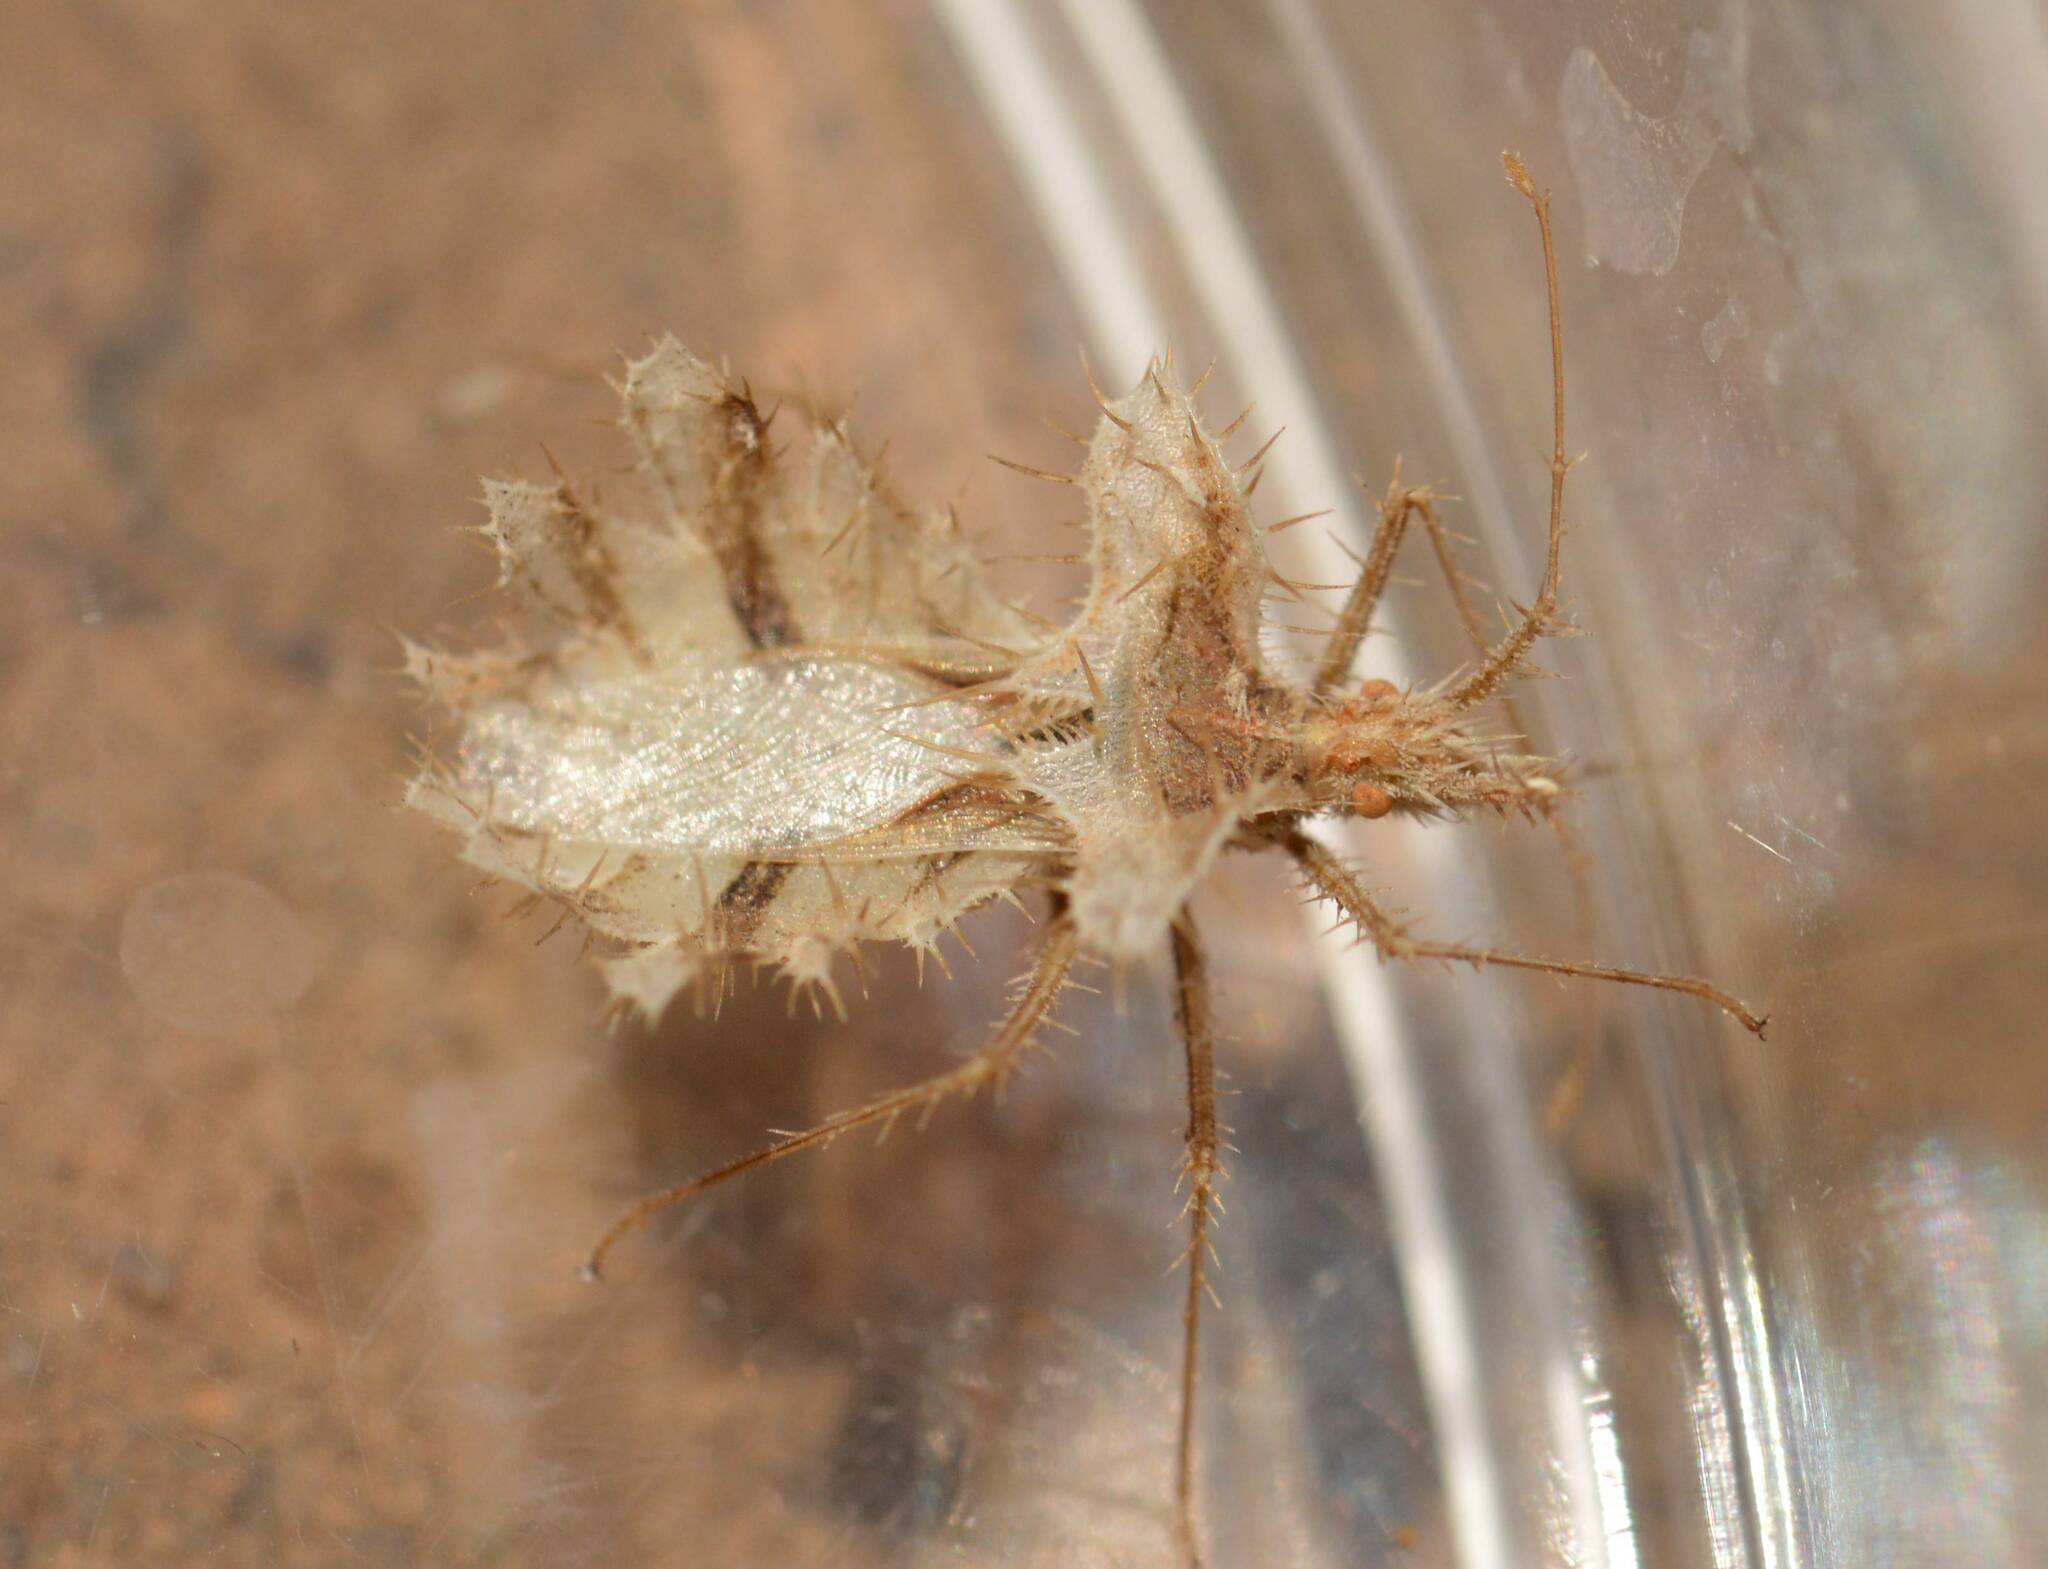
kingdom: Animalia
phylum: Arthropoda
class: Insecta
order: Hemiptera
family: Coreidae
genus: Phyllomorpha
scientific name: Phyllomorpha laciniata
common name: Golden egg bug
